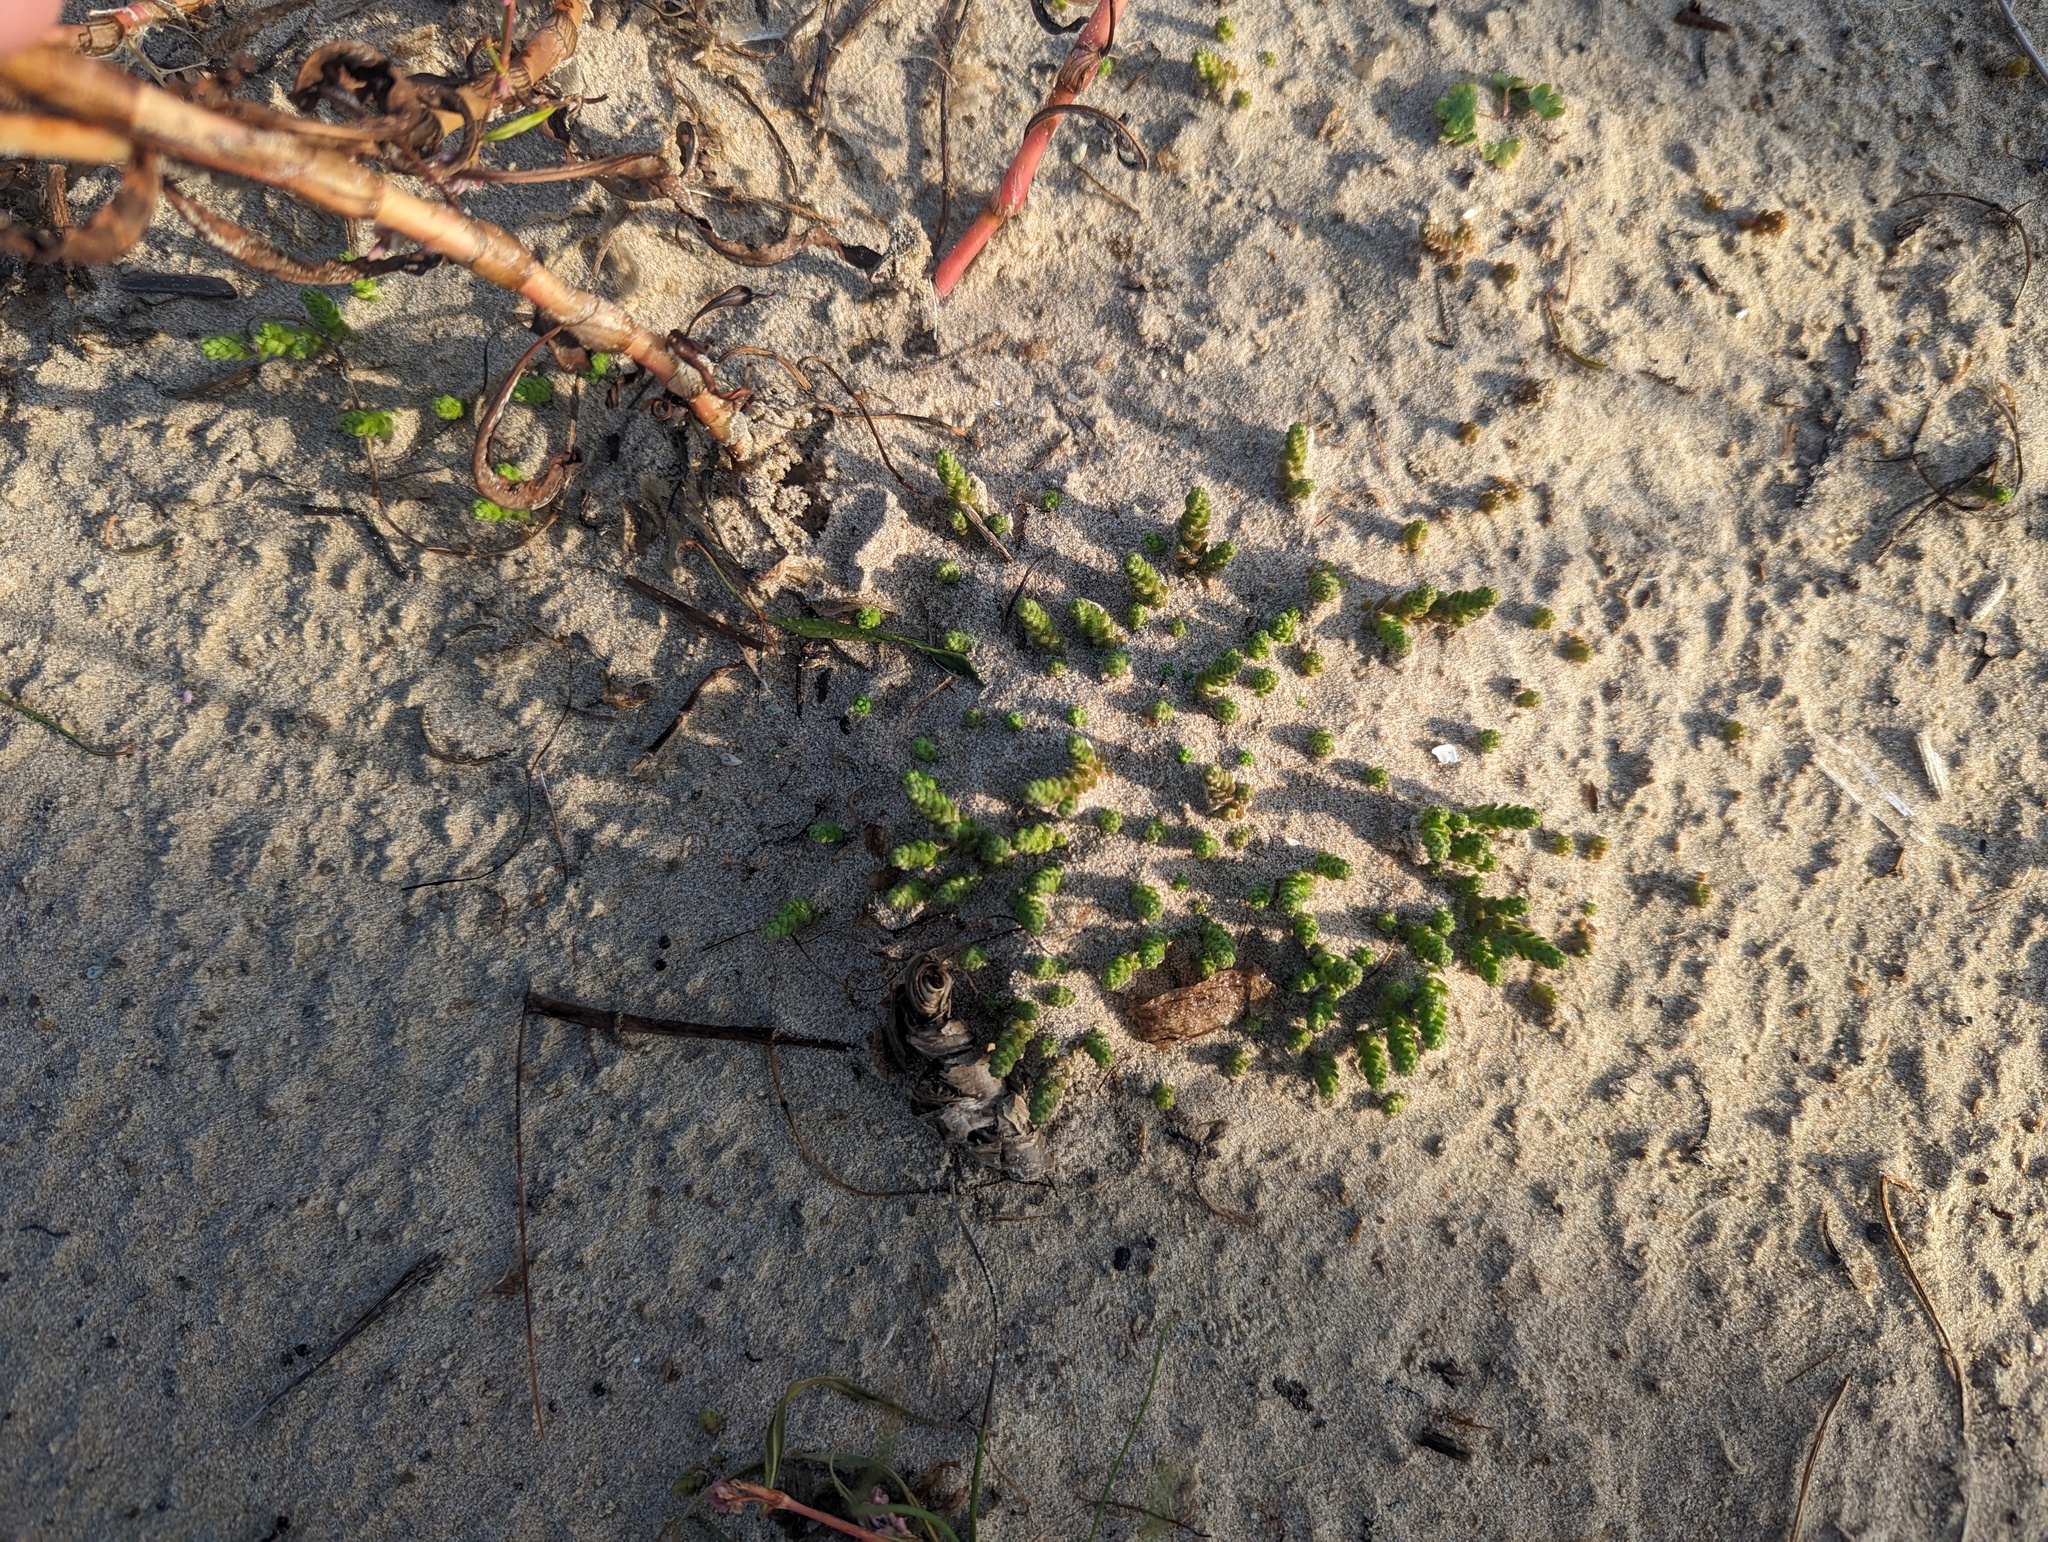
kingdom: Plantae
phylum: Tracheophyta
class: Magnoliopsida
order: Saxifragales
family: Crassulaceae
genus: Sedum
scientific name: Sedum acre
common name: Biting stonecrop
